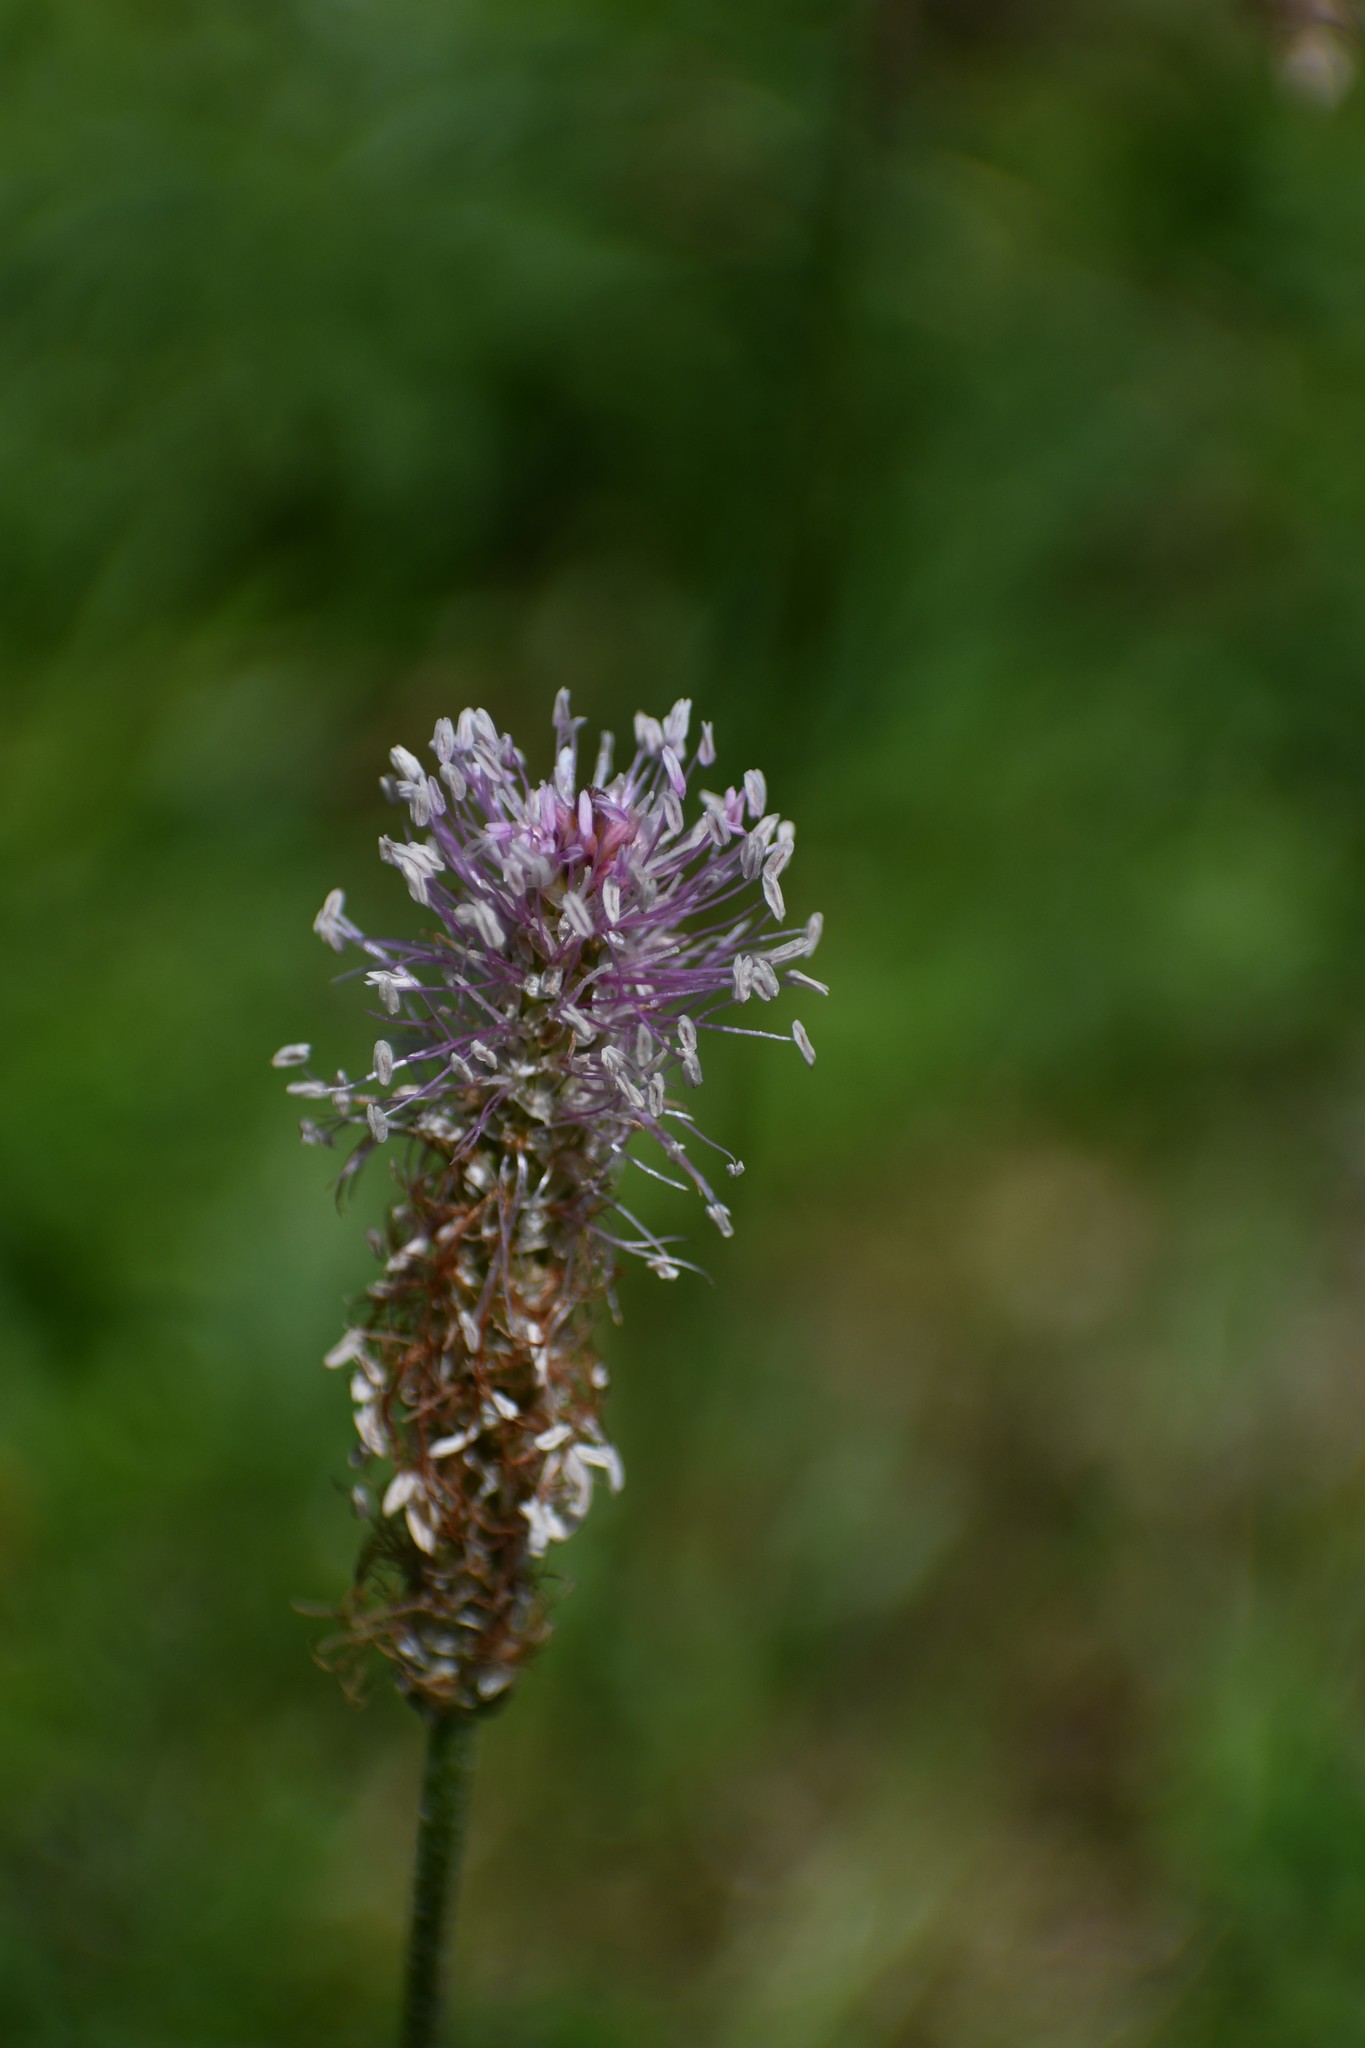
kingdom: Plantae
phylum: Tracheophyta
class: Magnoliopsida
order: Lamiales
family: Plantaginaceae
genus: Plantago
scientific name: Plantago media
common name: Hoary plantain
